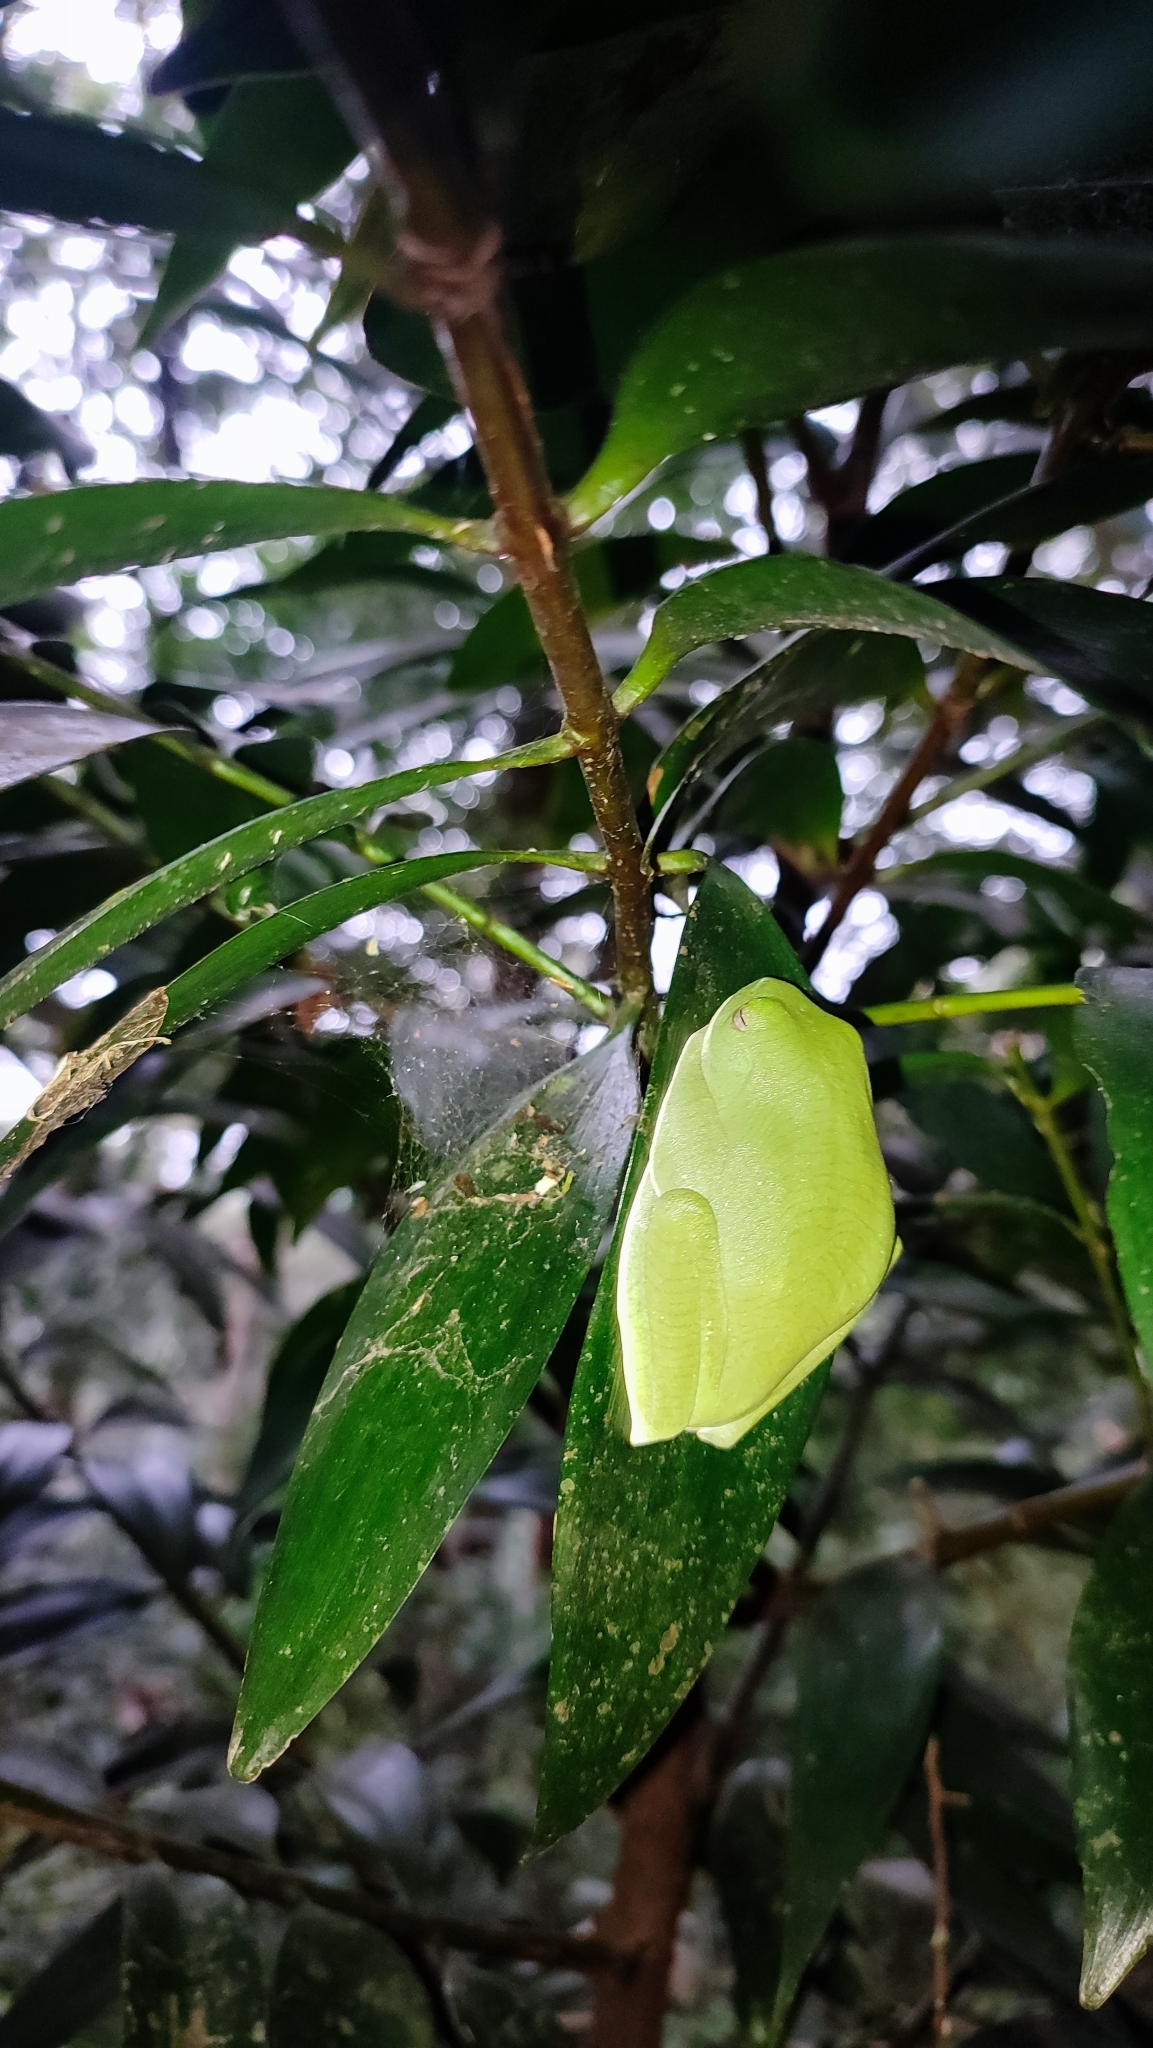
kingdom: Animalia
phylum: Chordata
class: Amphibia
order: Anura
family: Rhacophoridae
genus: Rhacophorus
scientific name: Rhacophorus pseudomalabaricus
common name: Anaimalai flying frog
